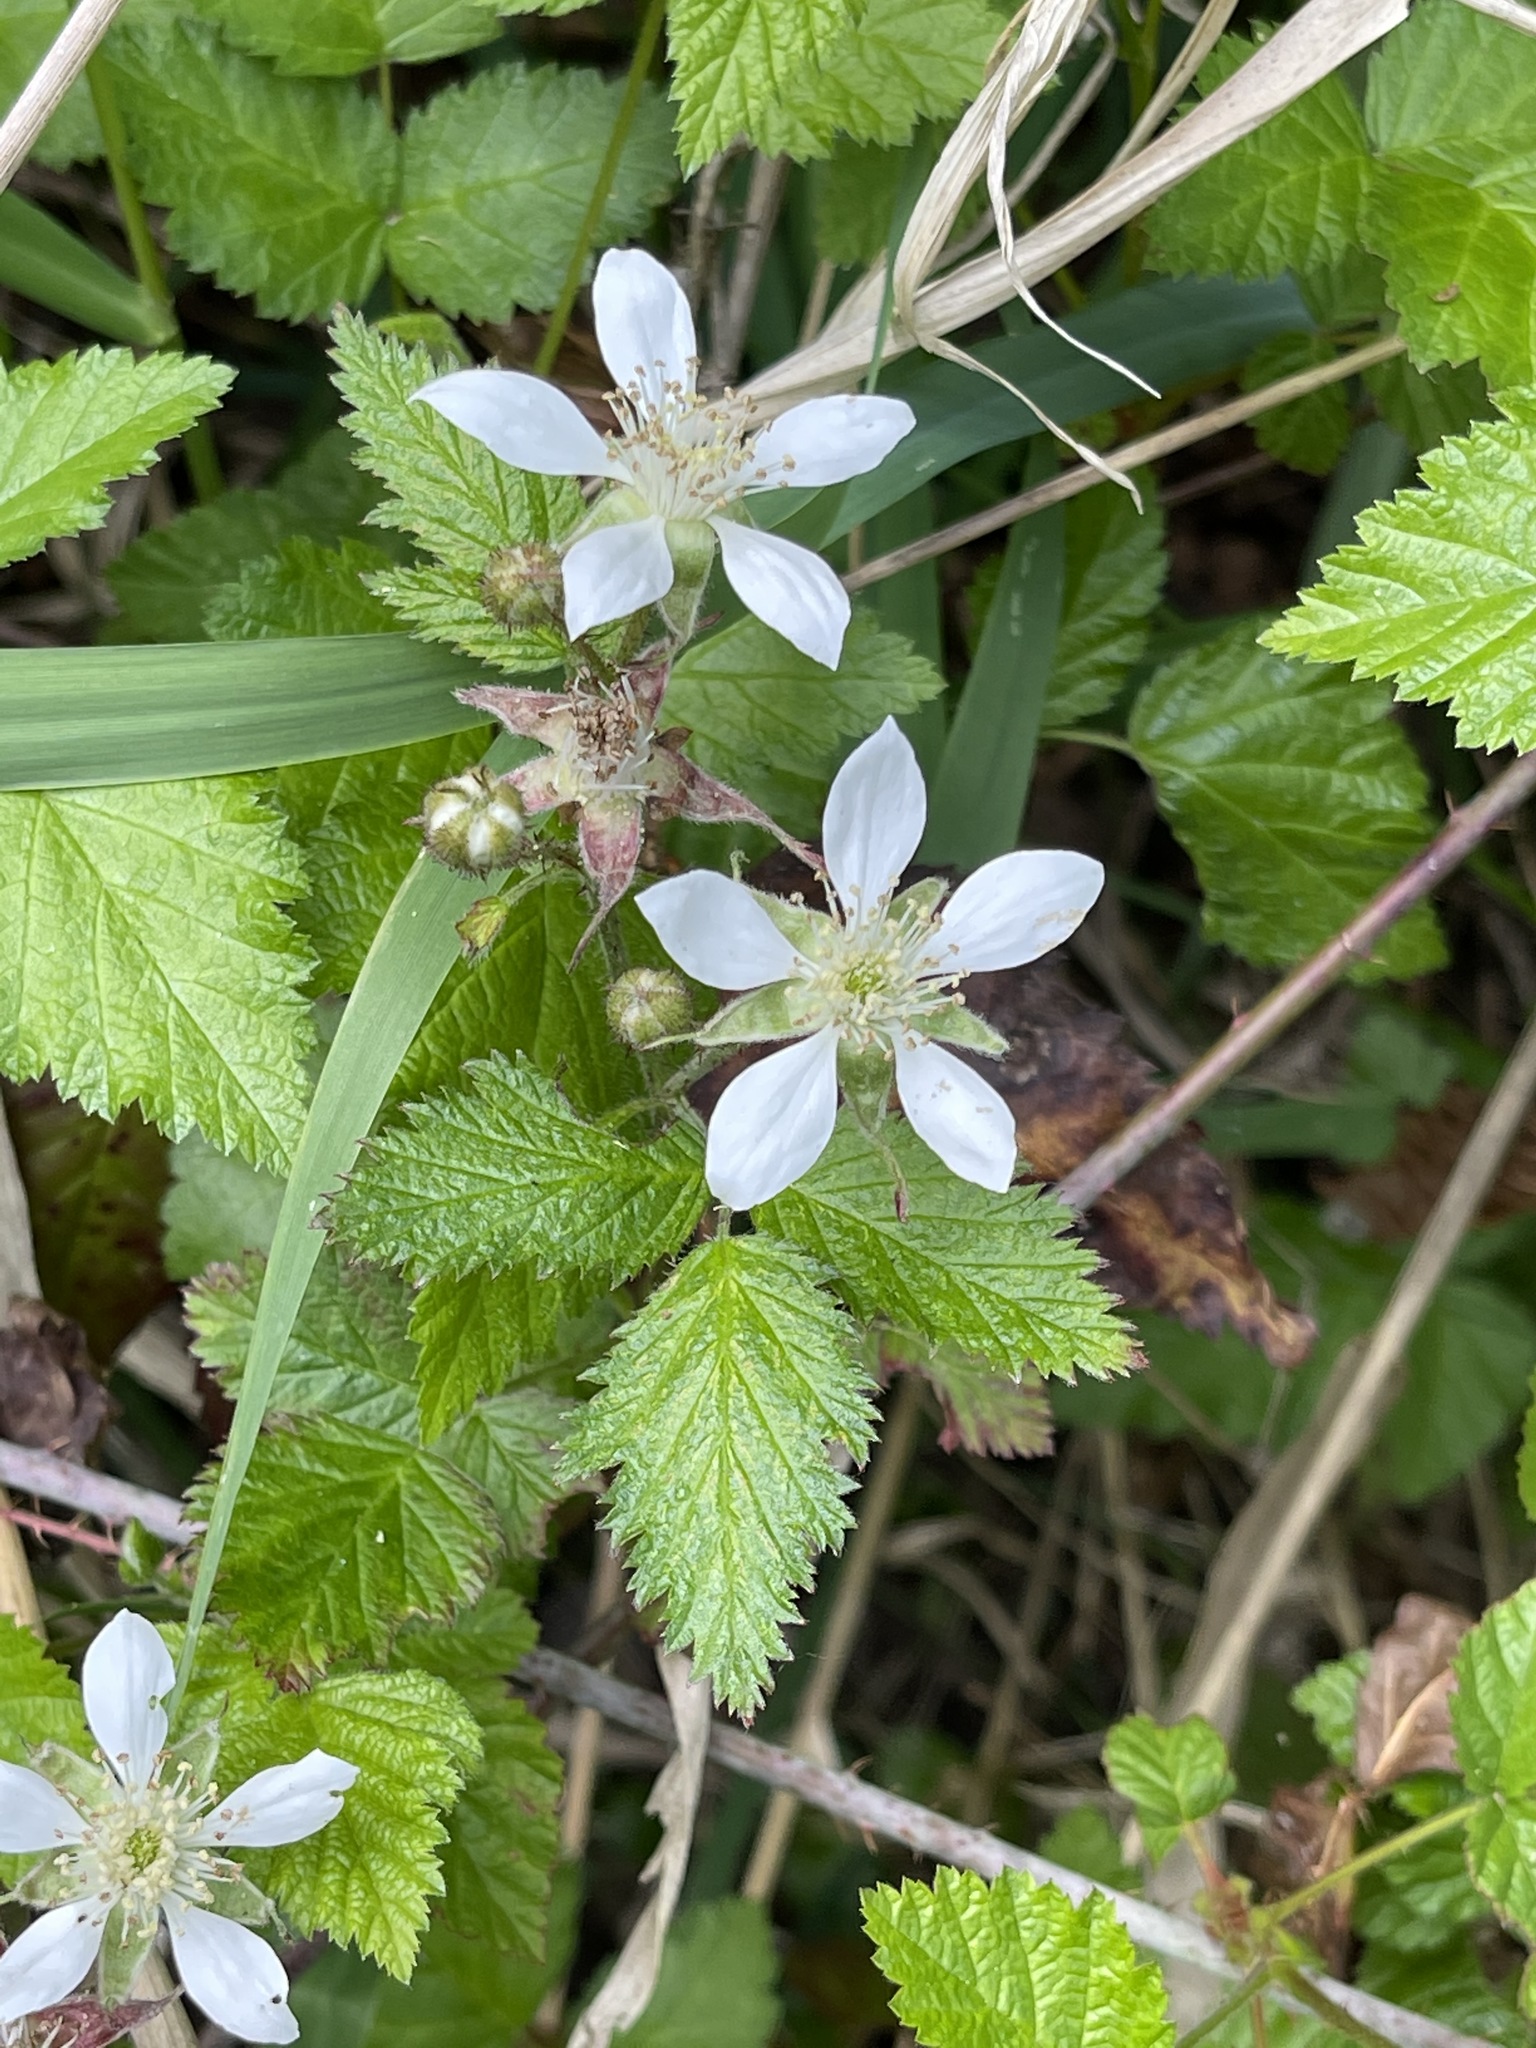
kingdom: Plantae
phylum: Tracheophyta
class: Magnoliopsida
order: Rosales
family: Rosaceae
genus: Rubus
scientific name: Rubus ursinus
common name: Pacific blackberry
